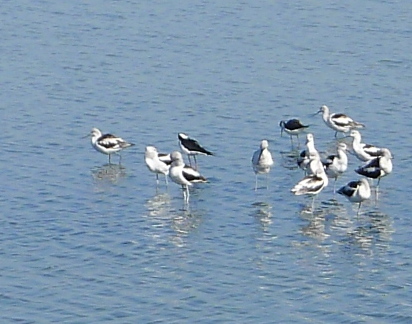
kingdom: Animalia
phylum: Chordata
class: Aves
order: Charadriiformes
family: Recurvirostridae
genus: Recurvirostra
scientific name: Recurvirostra americana
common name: American avocet
